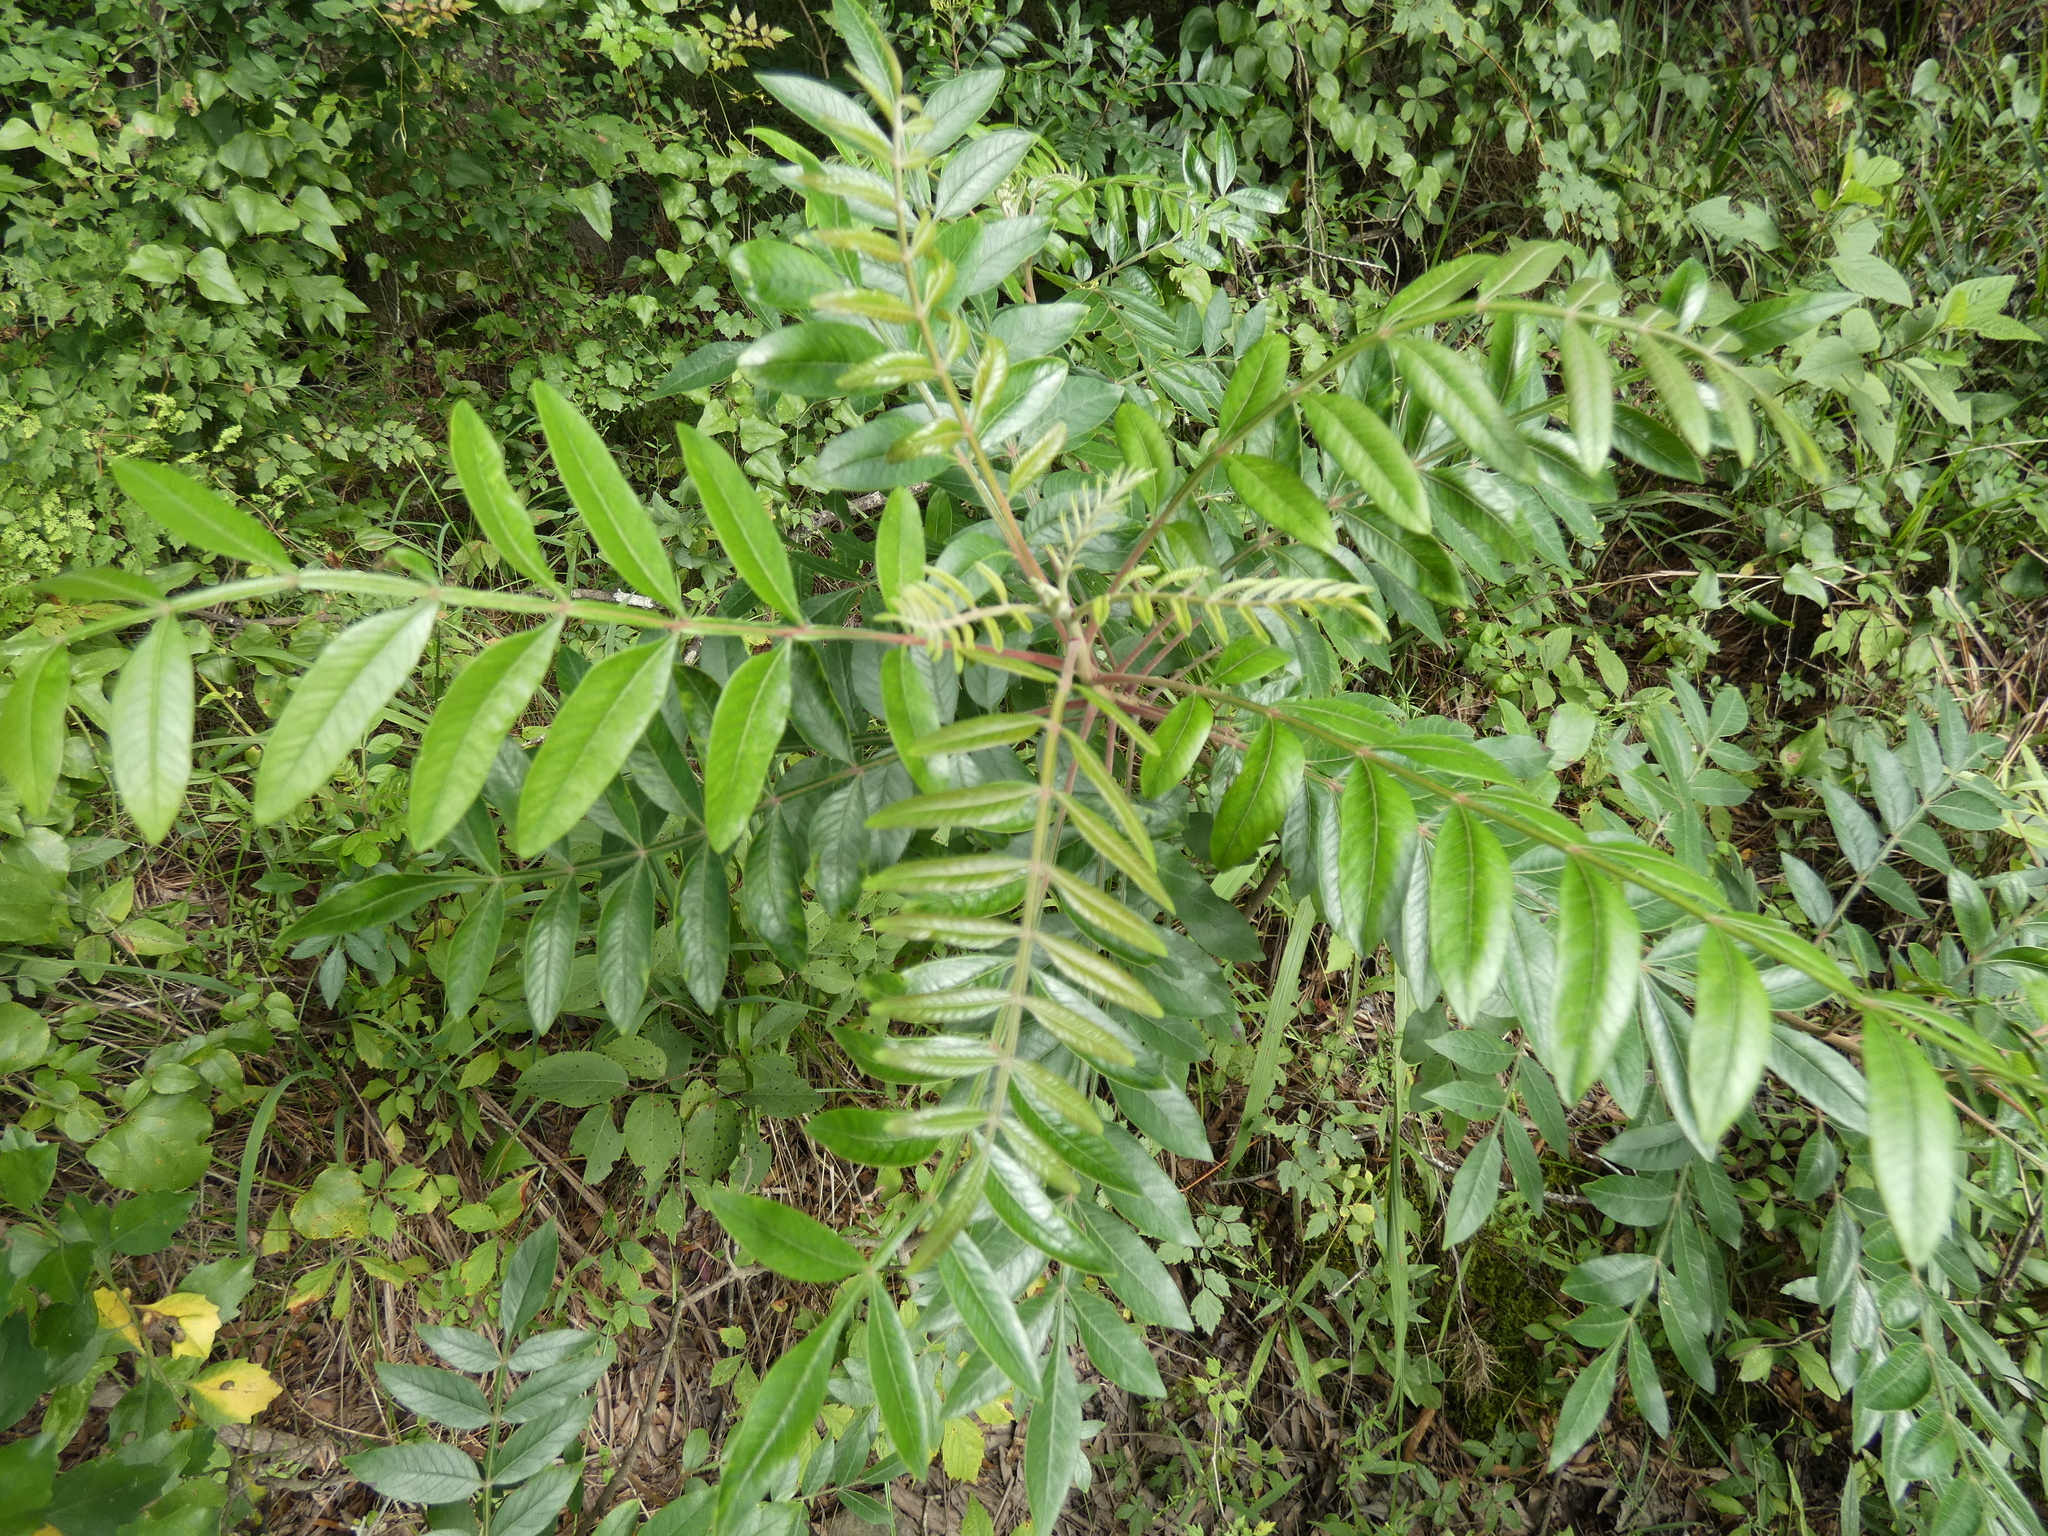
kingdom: Plantae
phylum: Tracheophyta
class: Magnoliopsida
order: Sapindales
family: Anacardiaceae
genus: Rhus
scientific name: Rhus copallina
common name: Shining sumac
